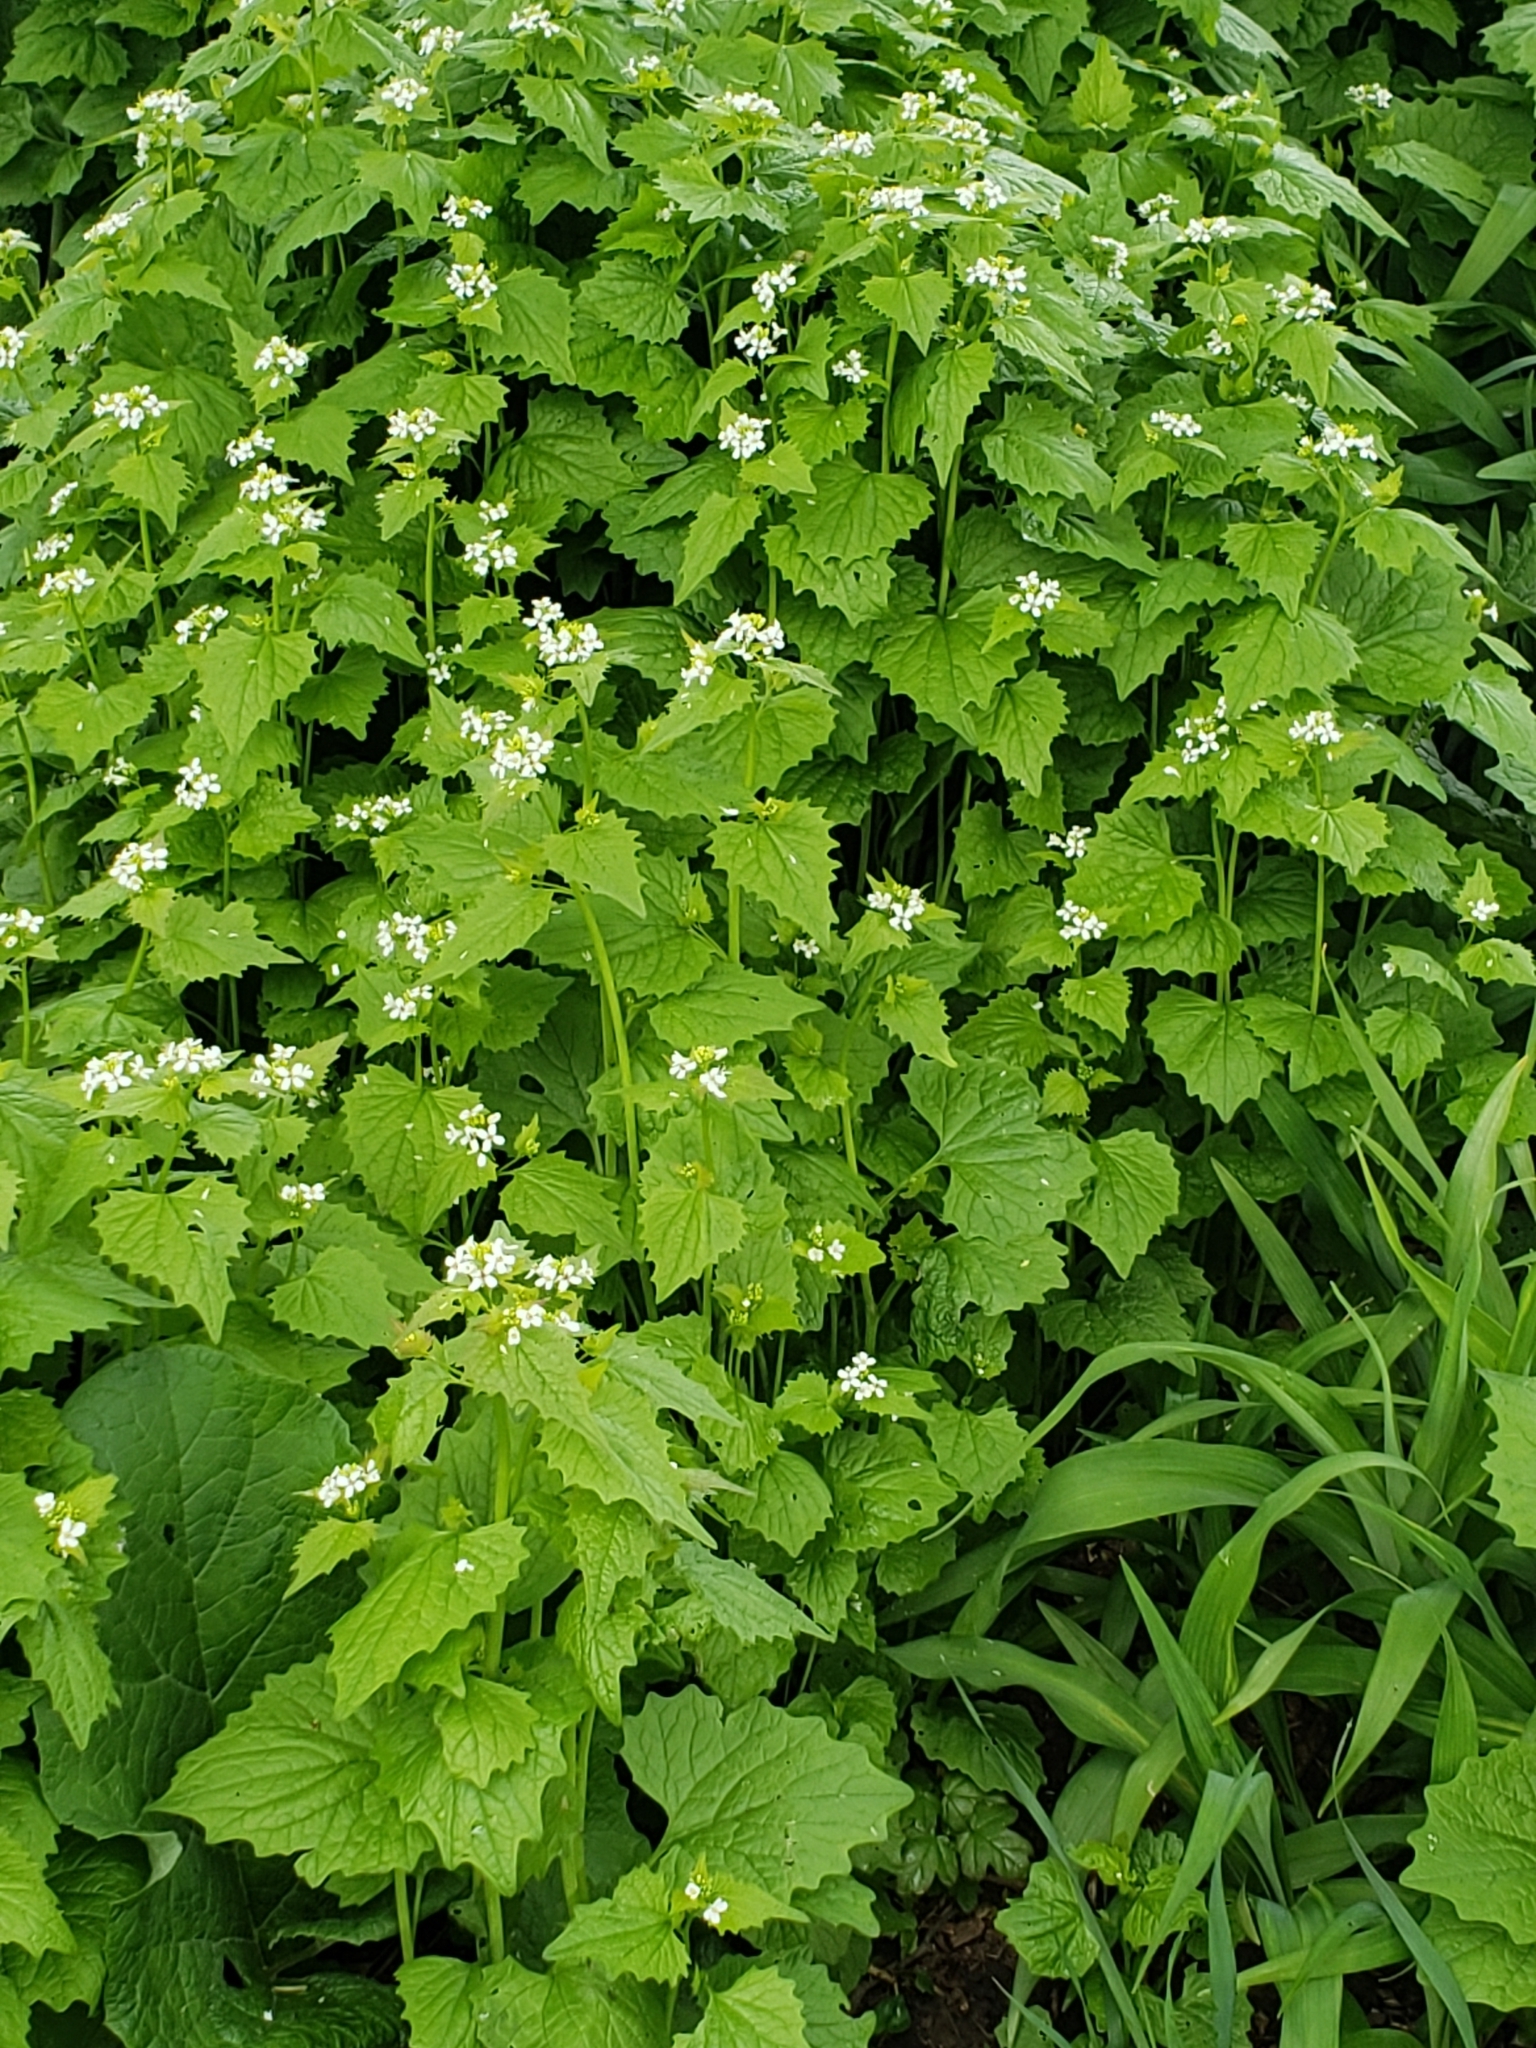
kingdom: Plantae
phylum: Tracheophyta
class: Magnoliopsida
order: Brassicales
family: Brassicaceae
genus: Alliaria
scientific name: Alliaria petiolata
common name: Garlic mustard
